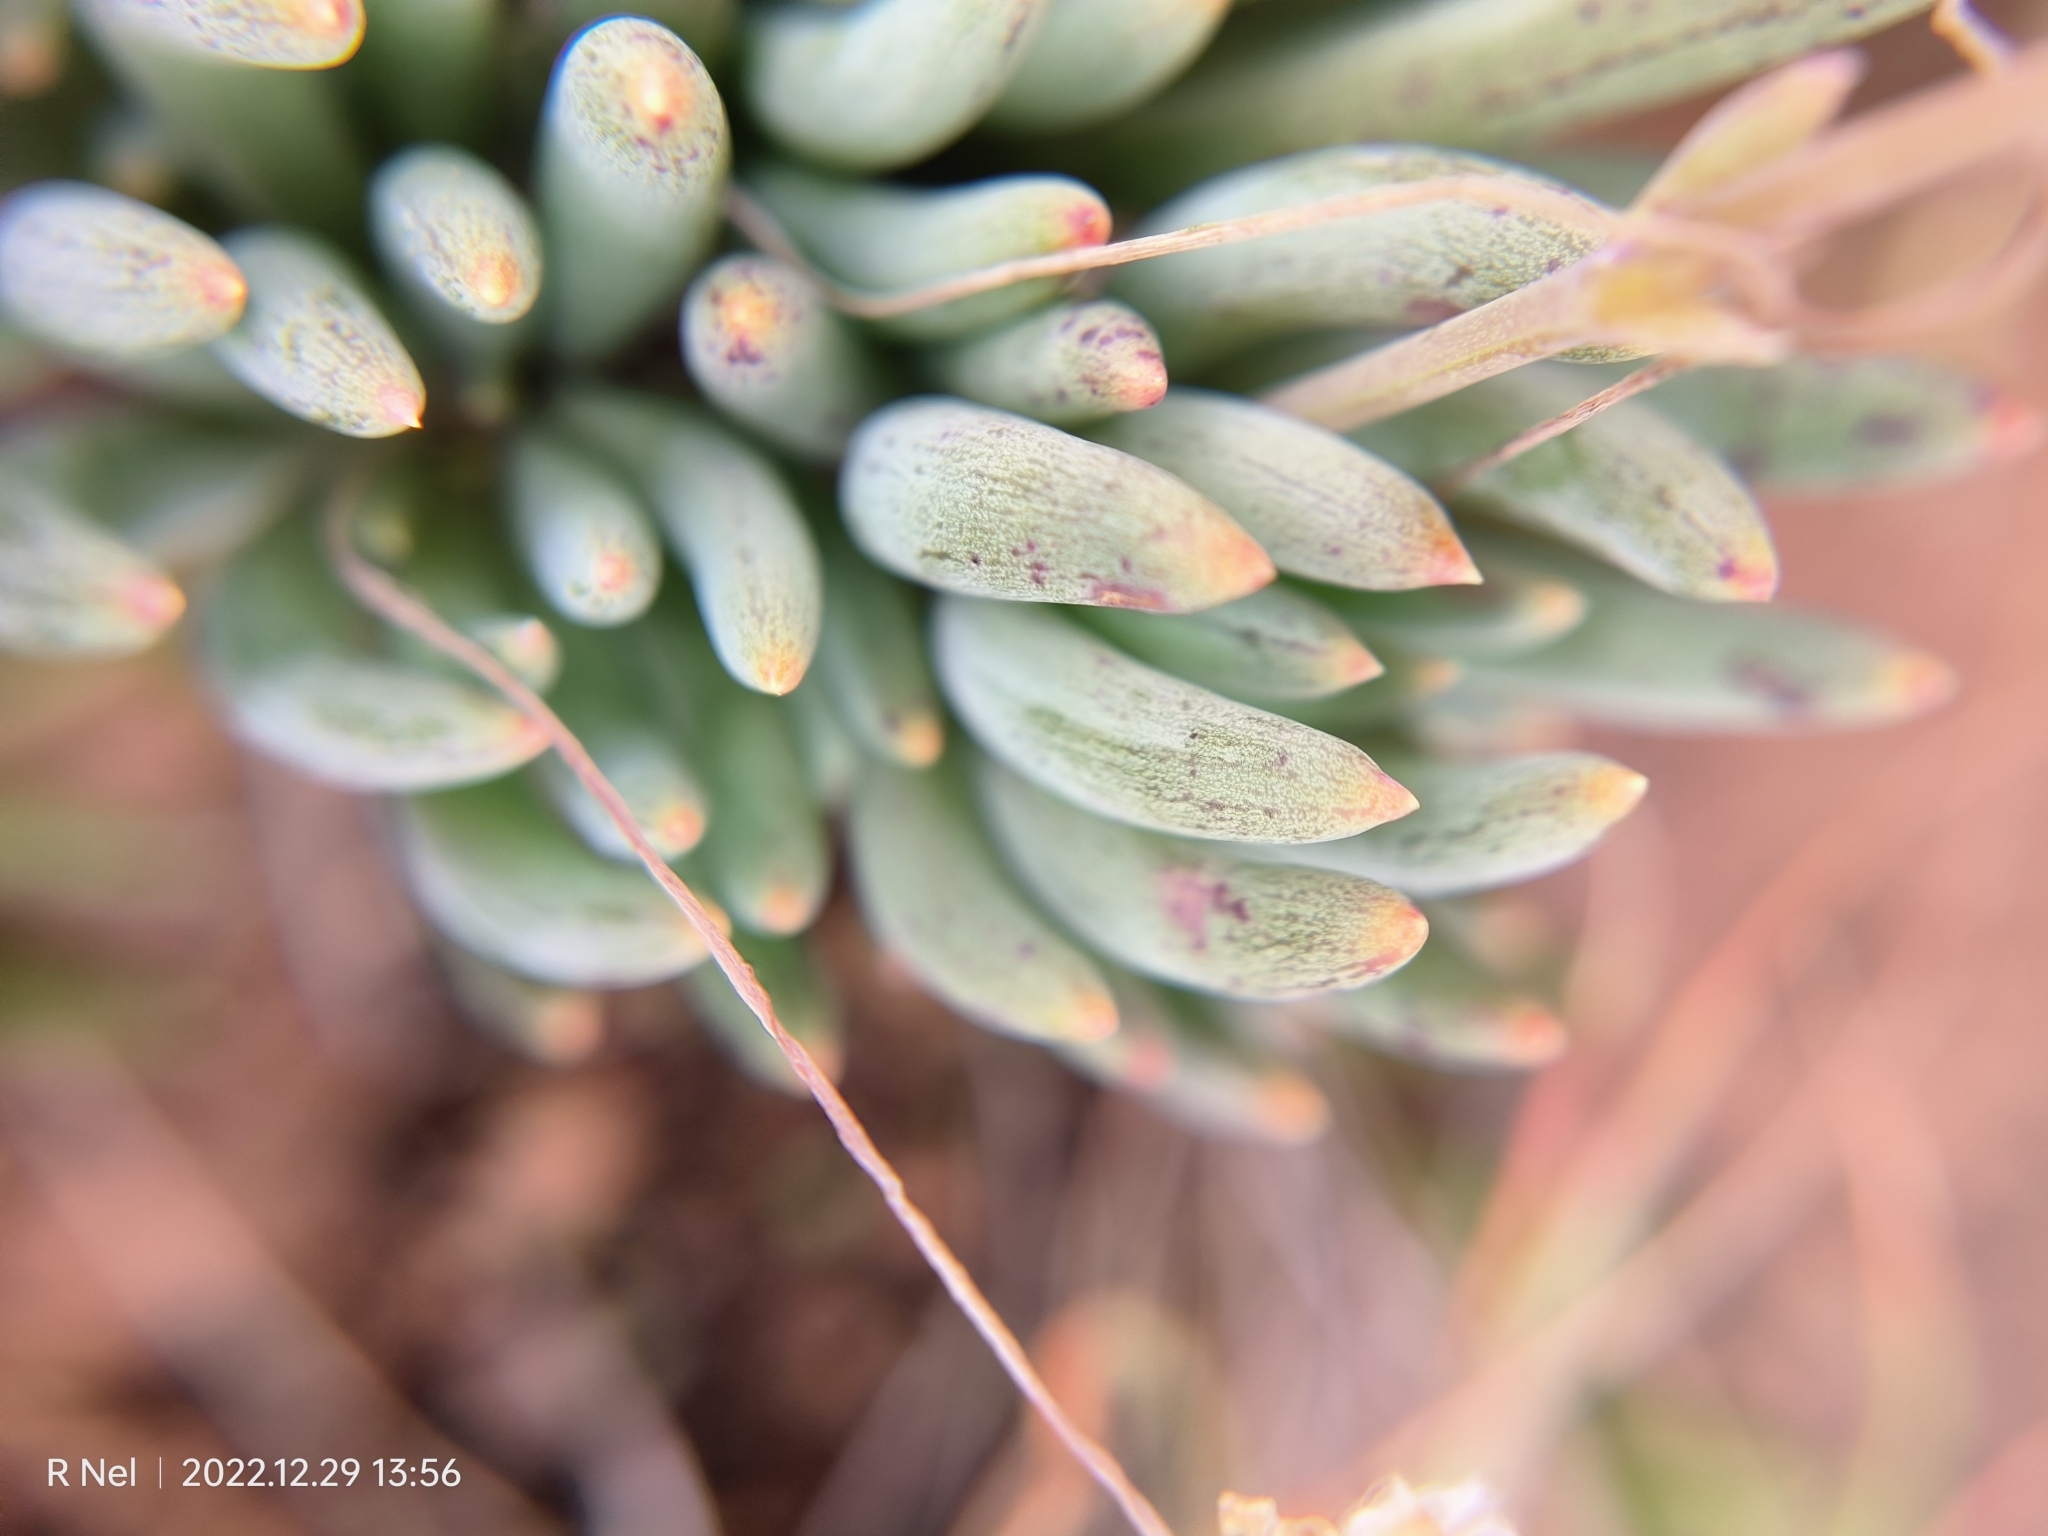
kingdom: Plantae
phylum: Tracheophyta
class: Magnoliopsida
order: Asterales
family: Asteraceae
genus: Crassothonna
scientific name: Crassothonna patula
